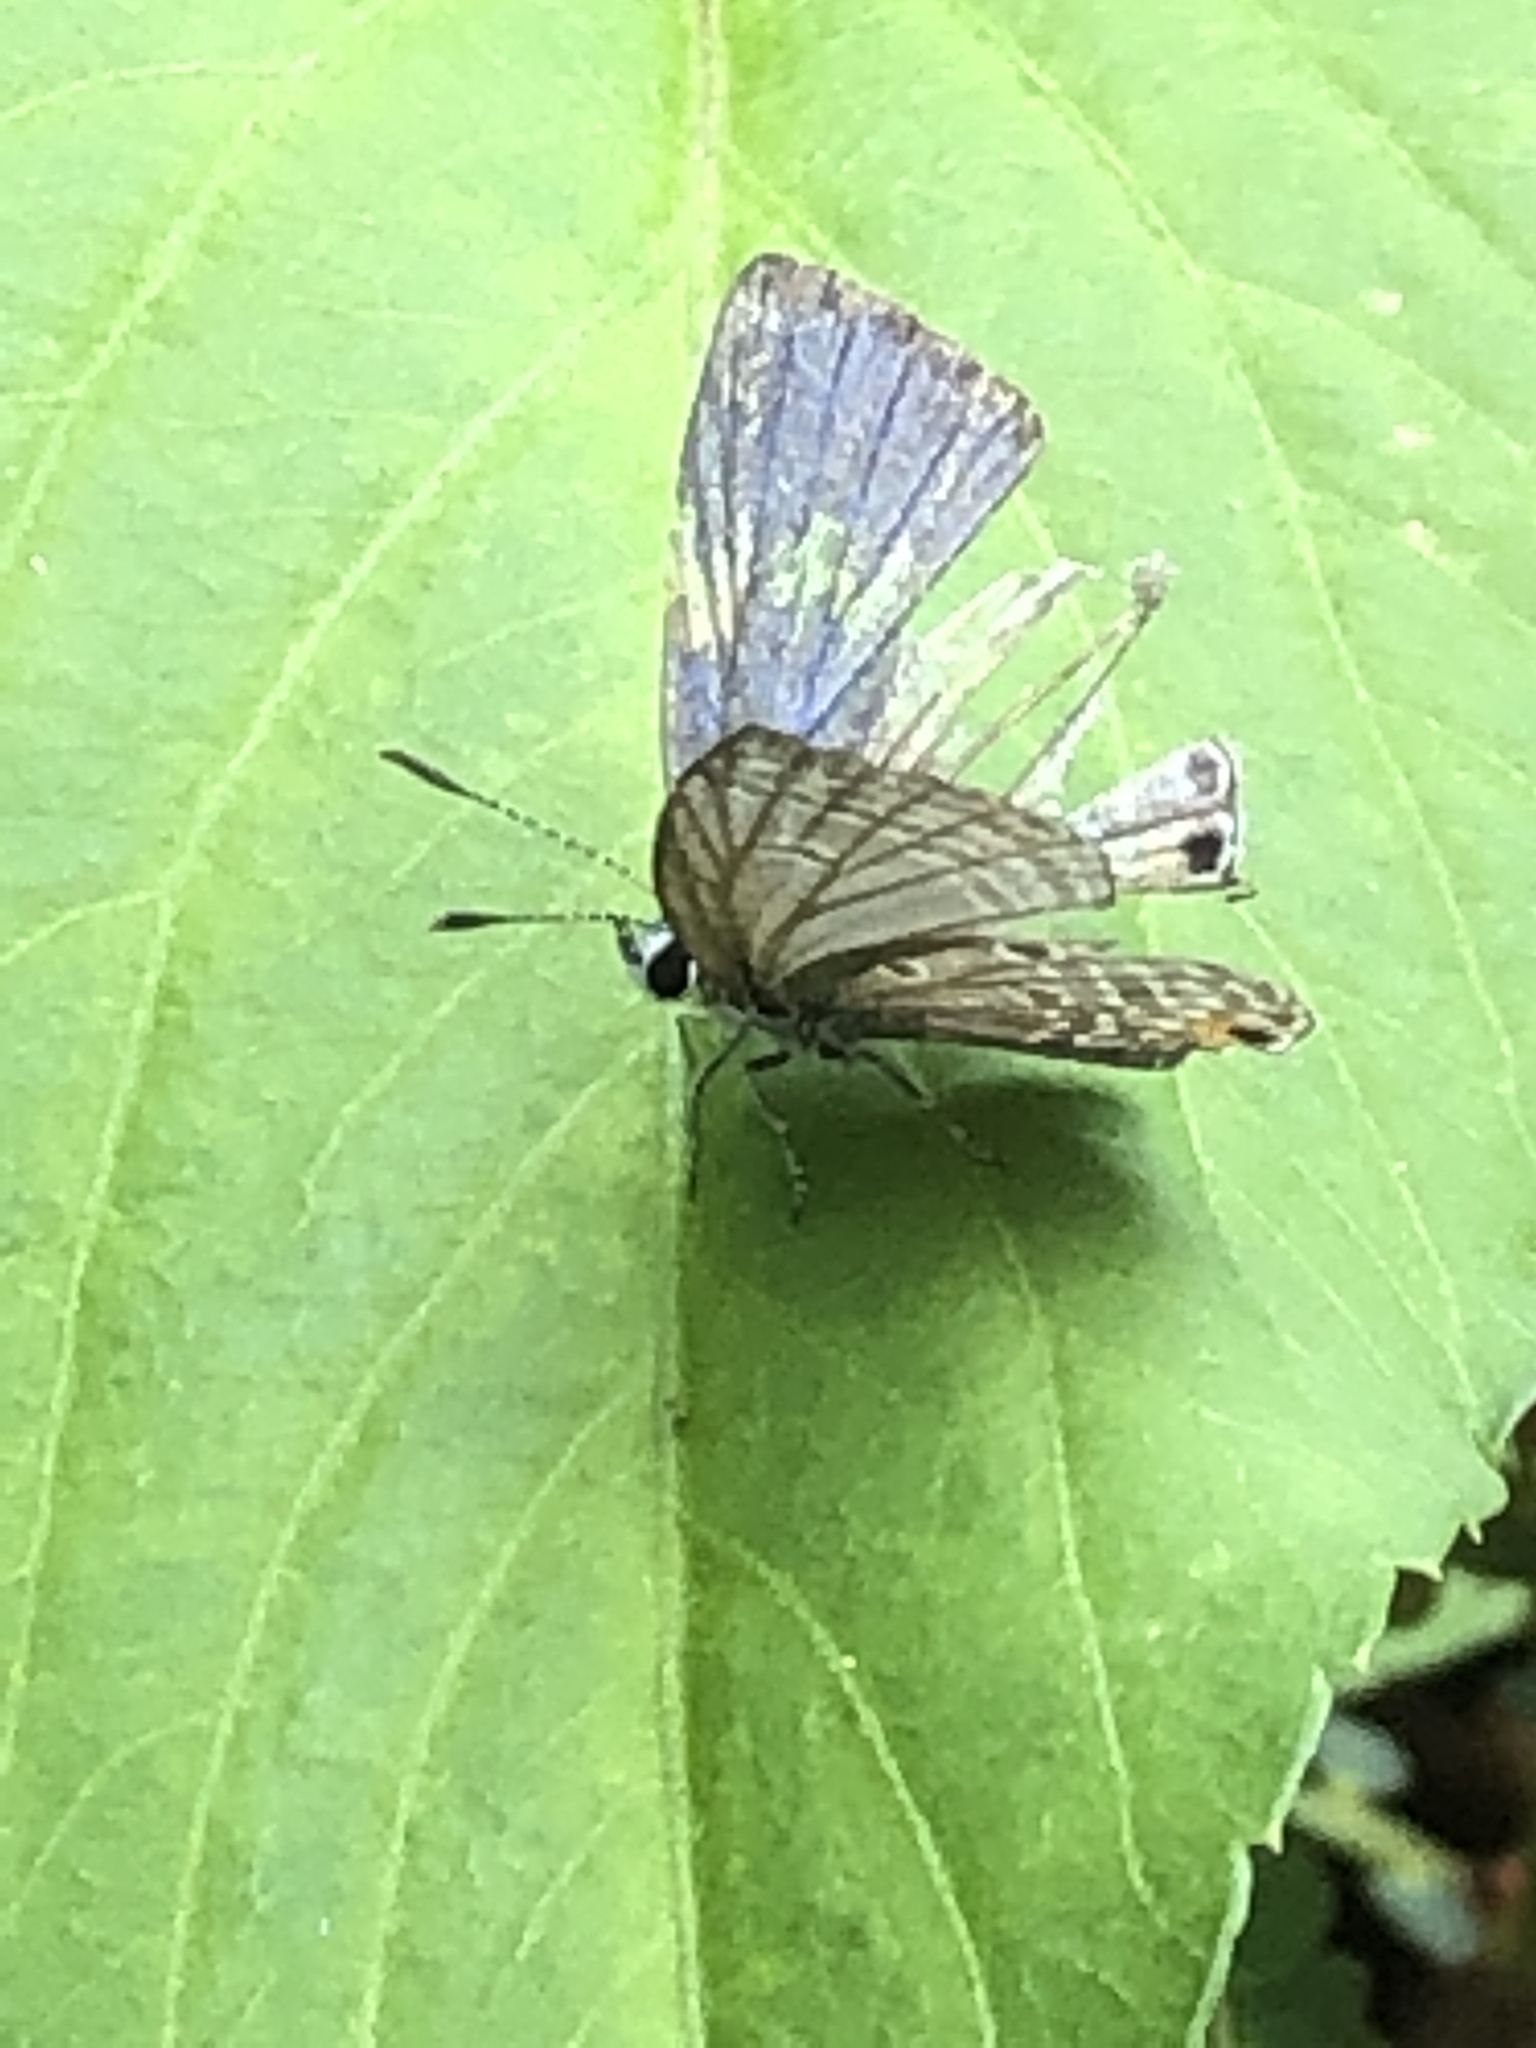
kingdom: Animalia
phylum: Arthropoda
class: Insecta
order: Lepidoptera
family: Lycaenidae
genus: Luthrodes
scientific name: Luthrodes pandava
